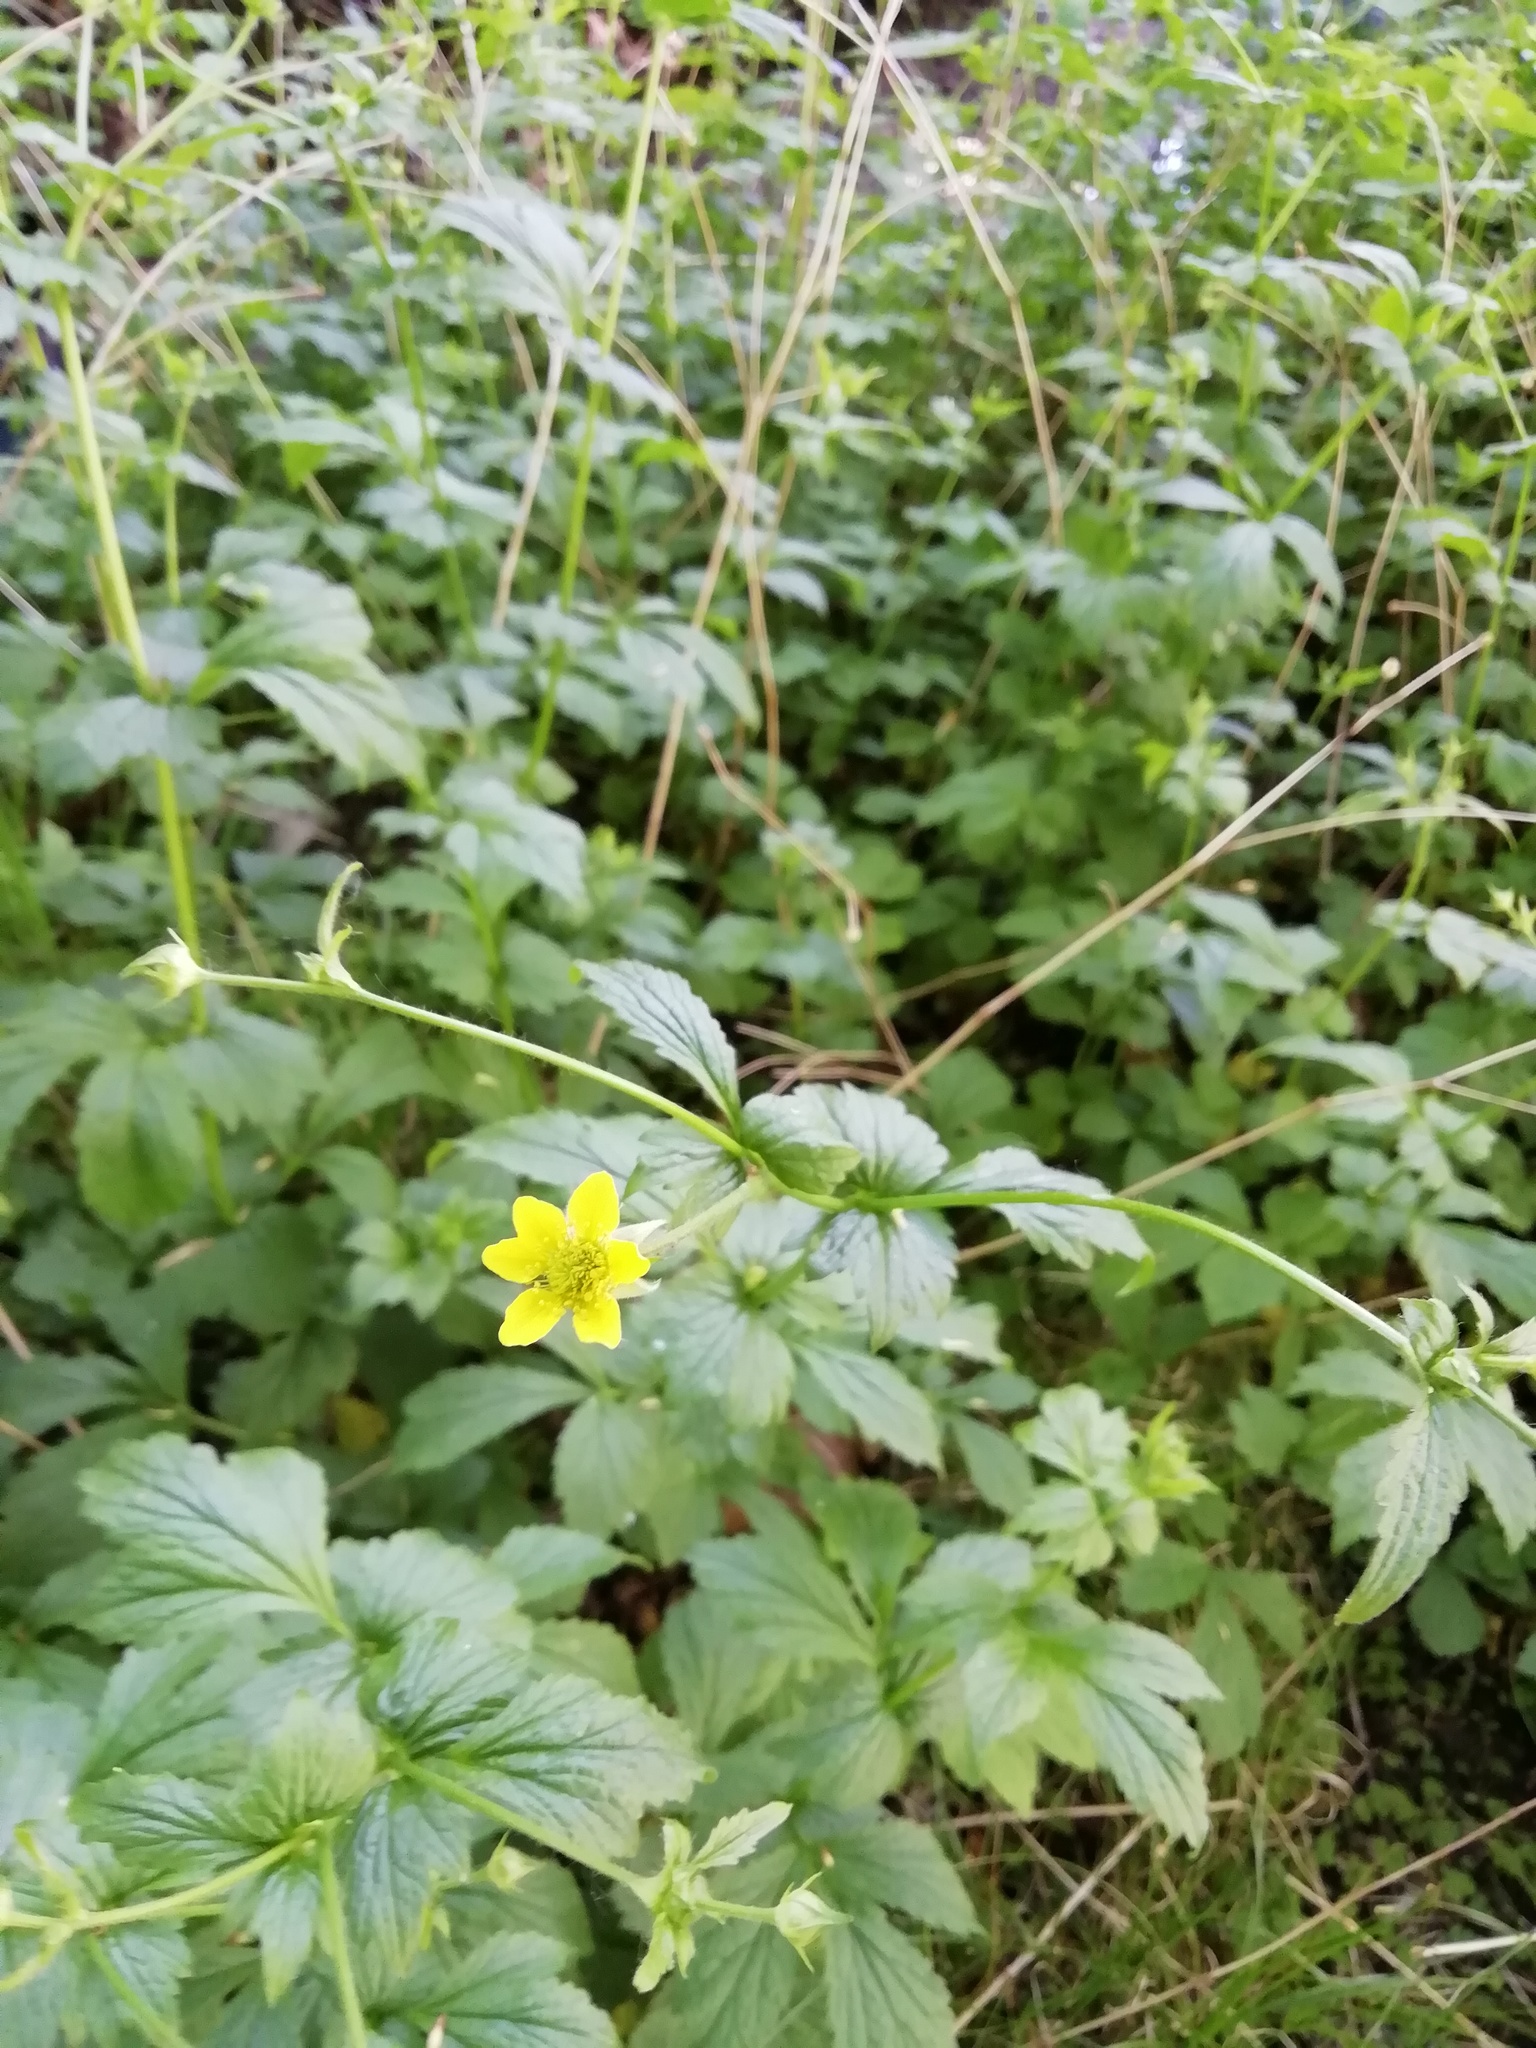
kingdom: Plantae
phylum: Tracheophyta
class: Magnoliopsida
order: Rosales
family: Rosaceae
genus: Geum
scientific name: Geum urbanum
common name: Wood avens
